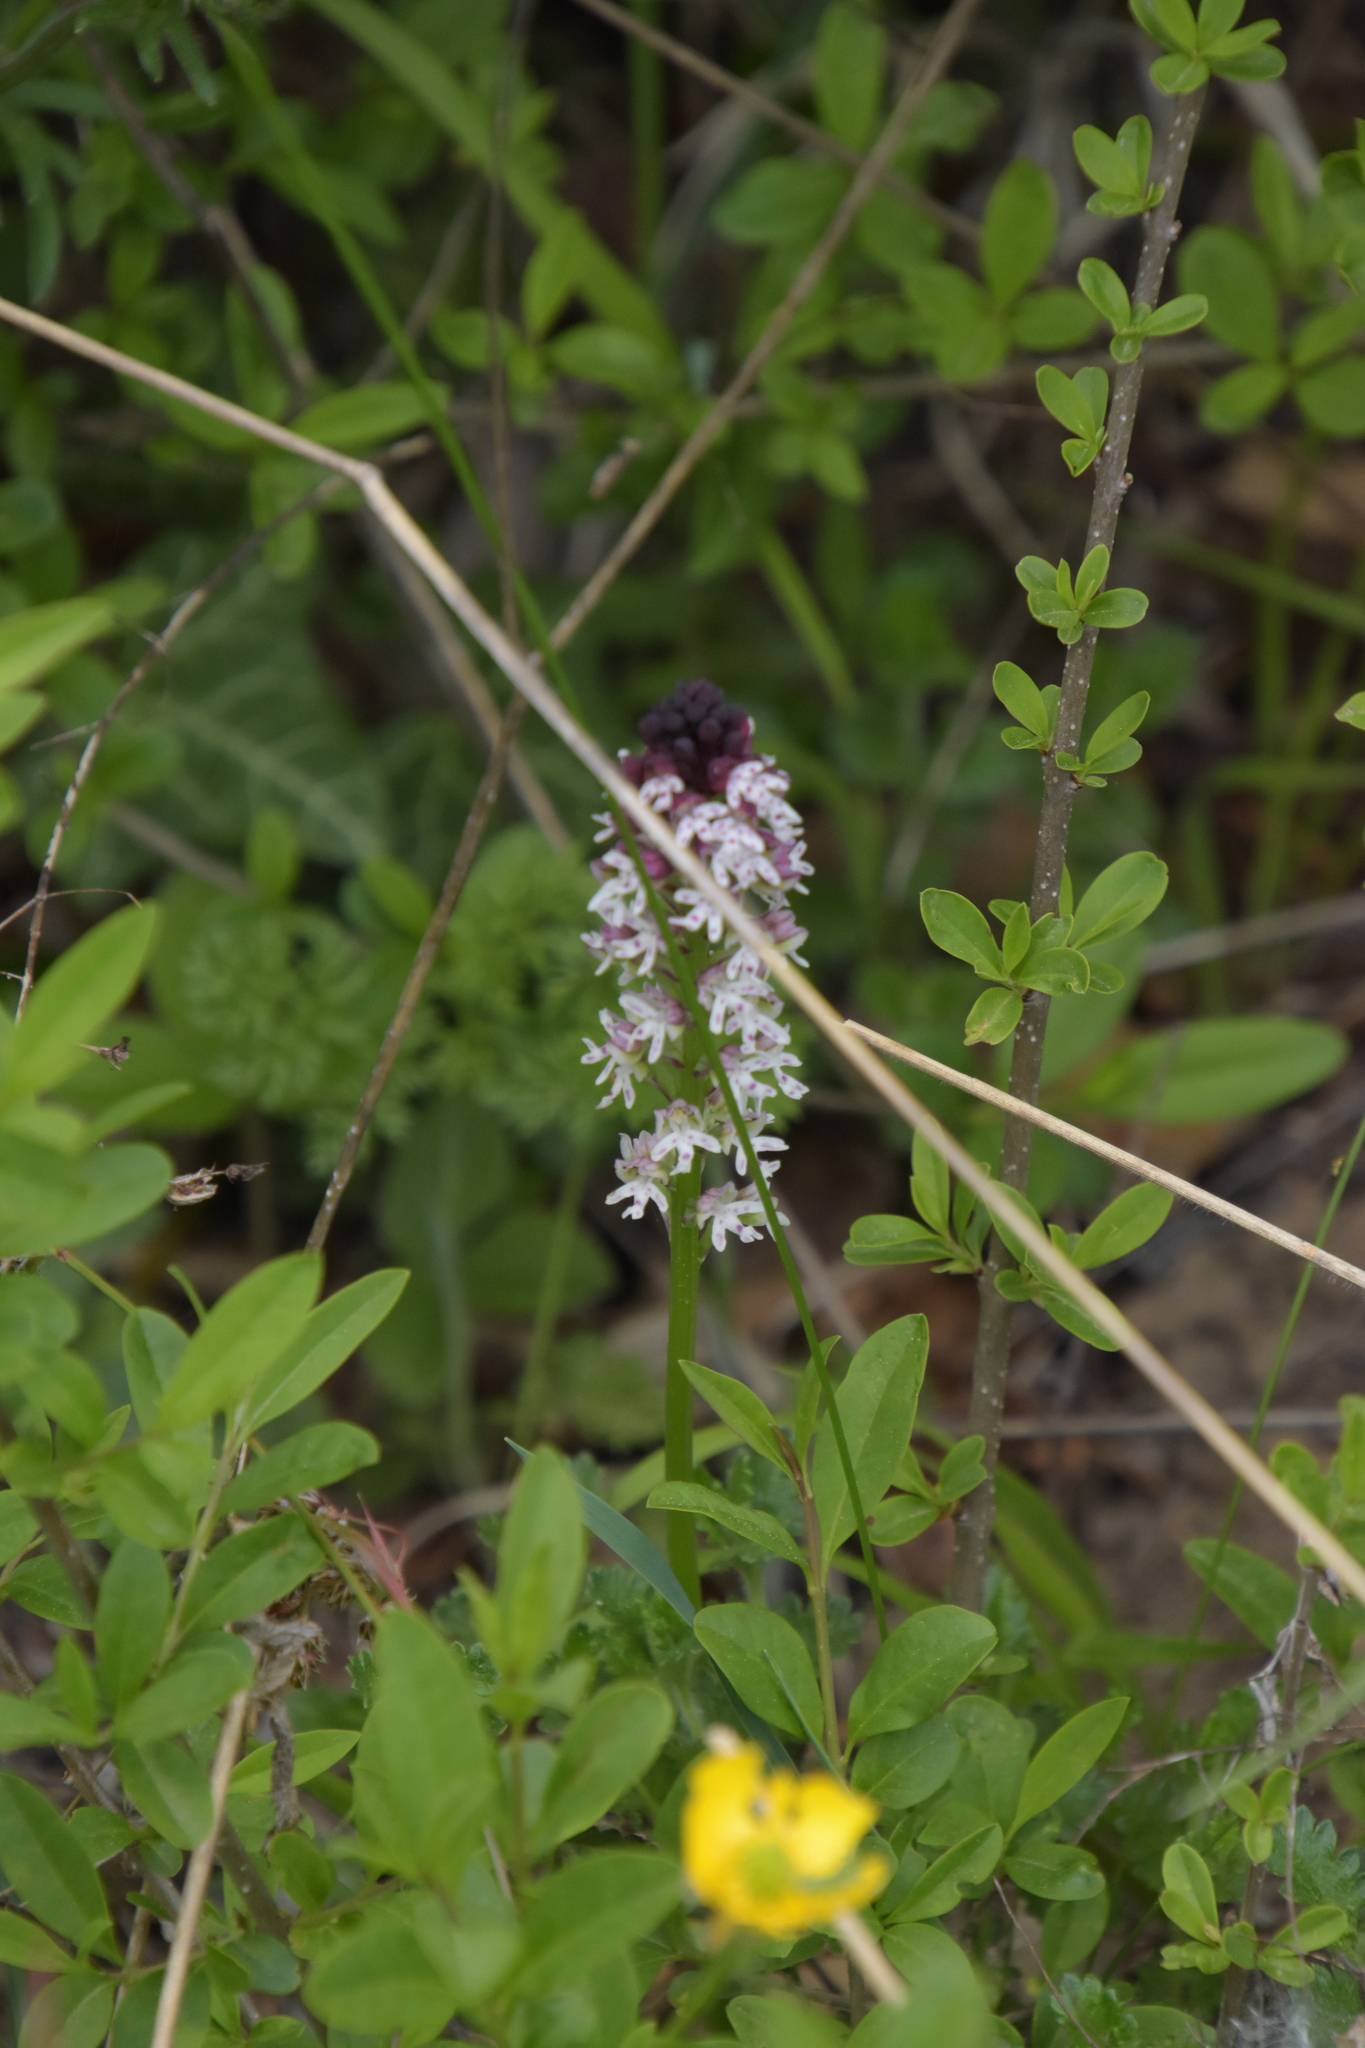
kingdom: Plantae
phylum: Tracheophyta
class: Liliopsida
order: Asparagales
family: Orchidaceae
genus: Neotinea
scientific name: Neotinea ustulata
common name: Burnt orchid
